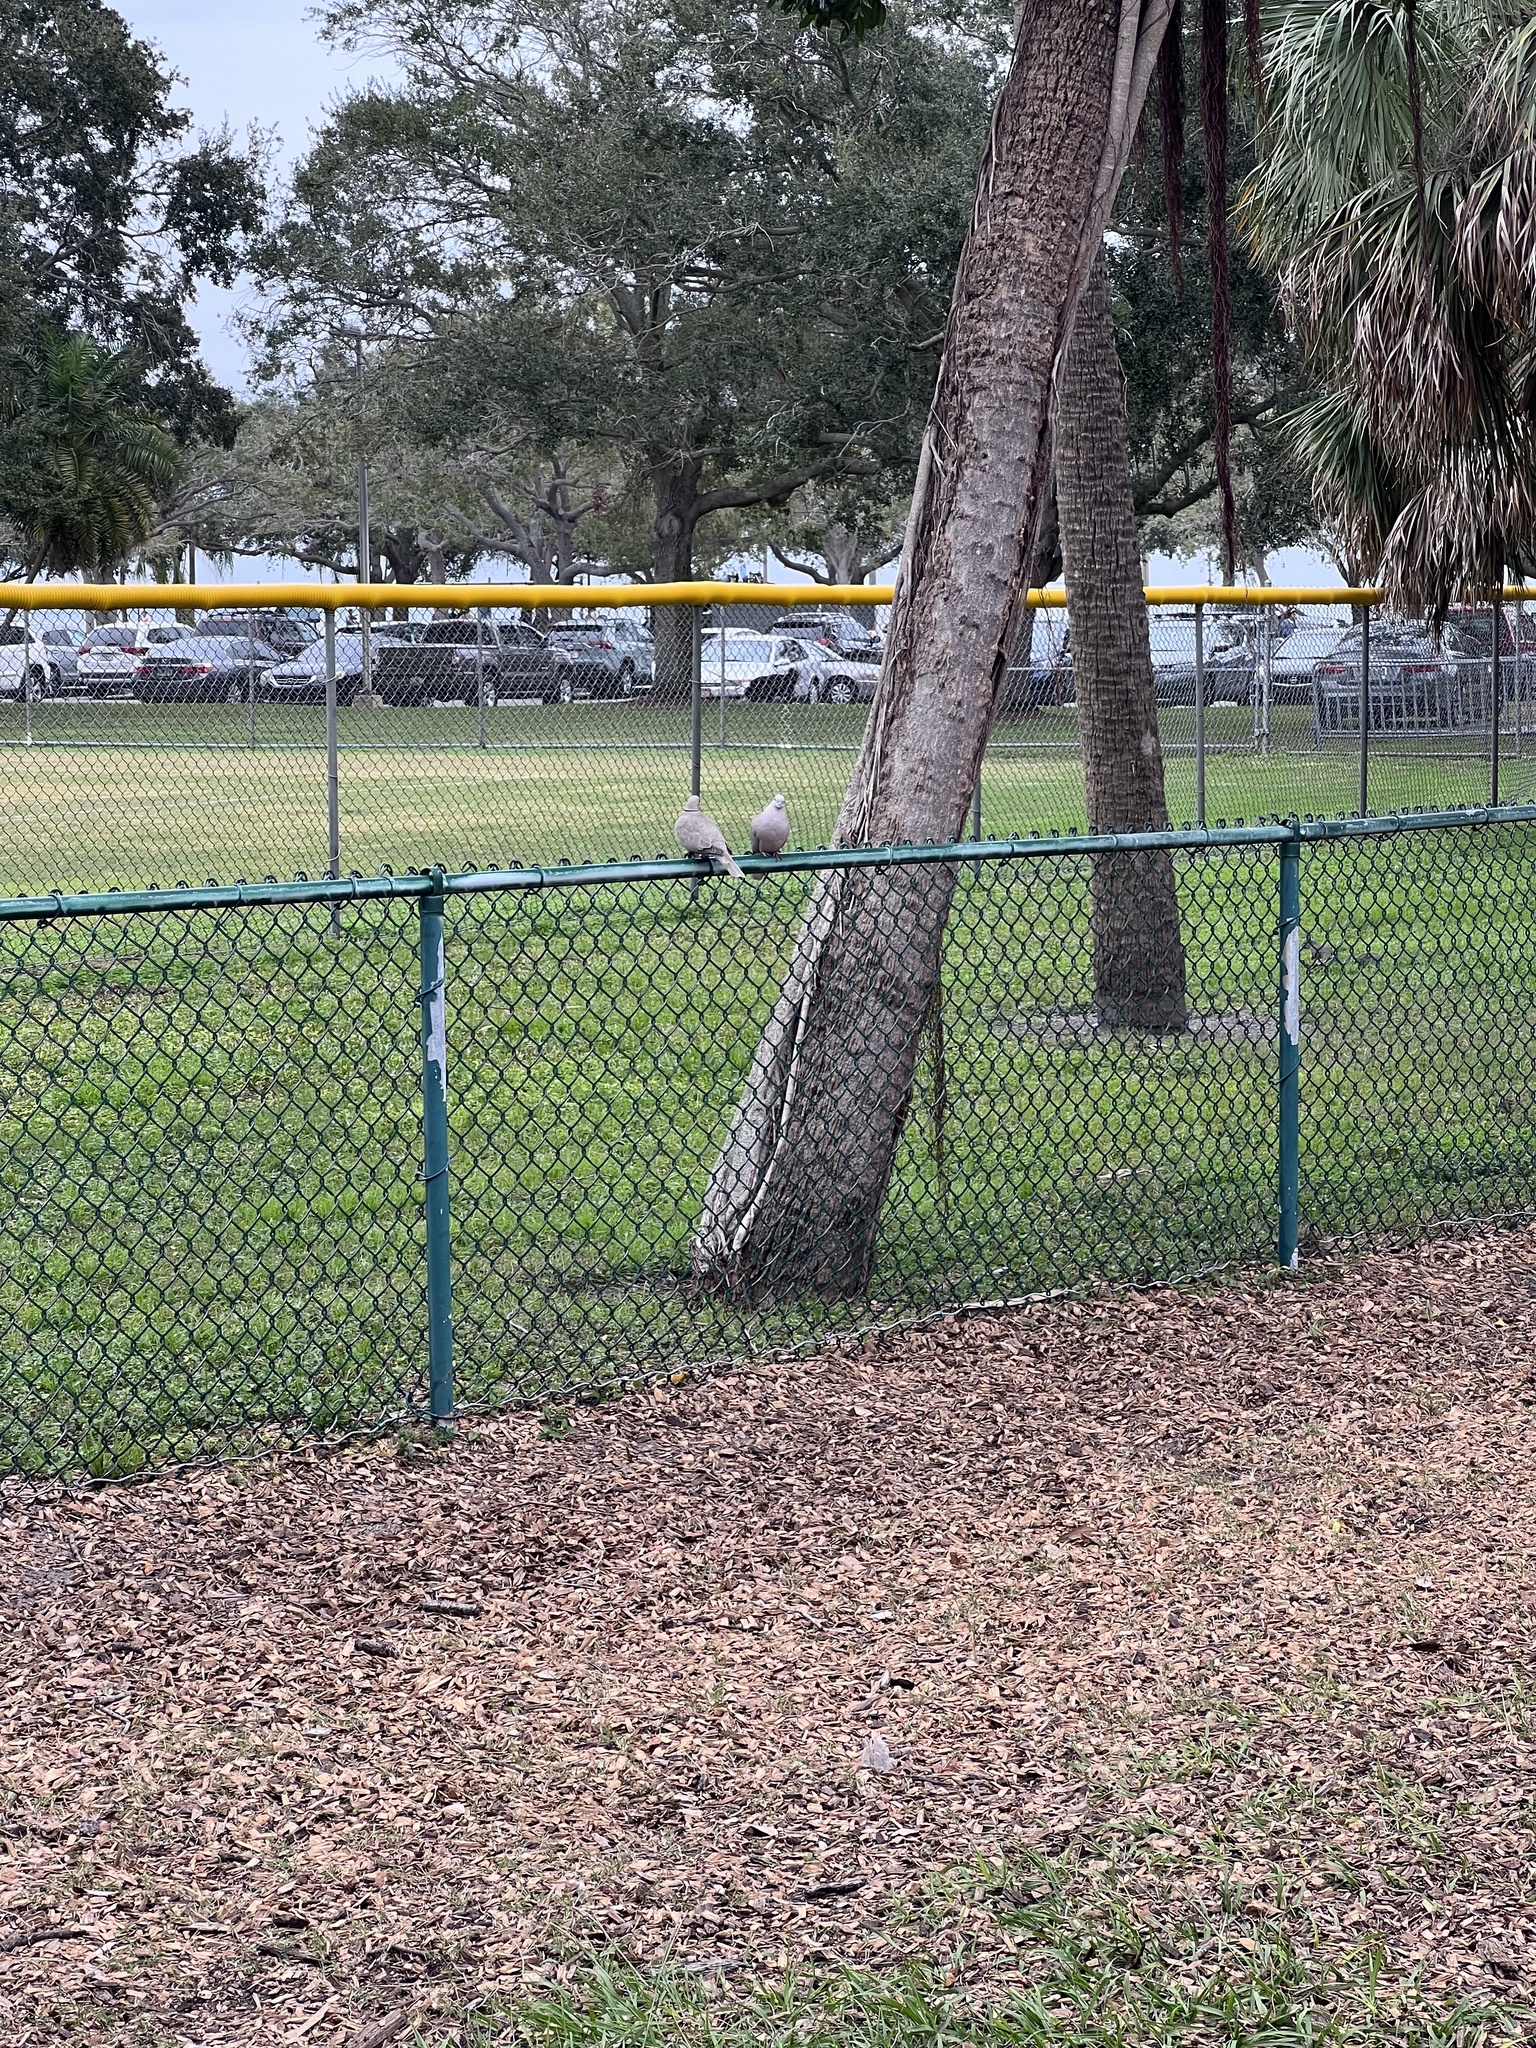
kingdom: Animalia
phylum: Chordata
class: Aves
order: Columbiformes
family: Columbidae
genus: Streptopelia
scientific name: Streptopelia decaocto
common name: Eurasian collared dove
